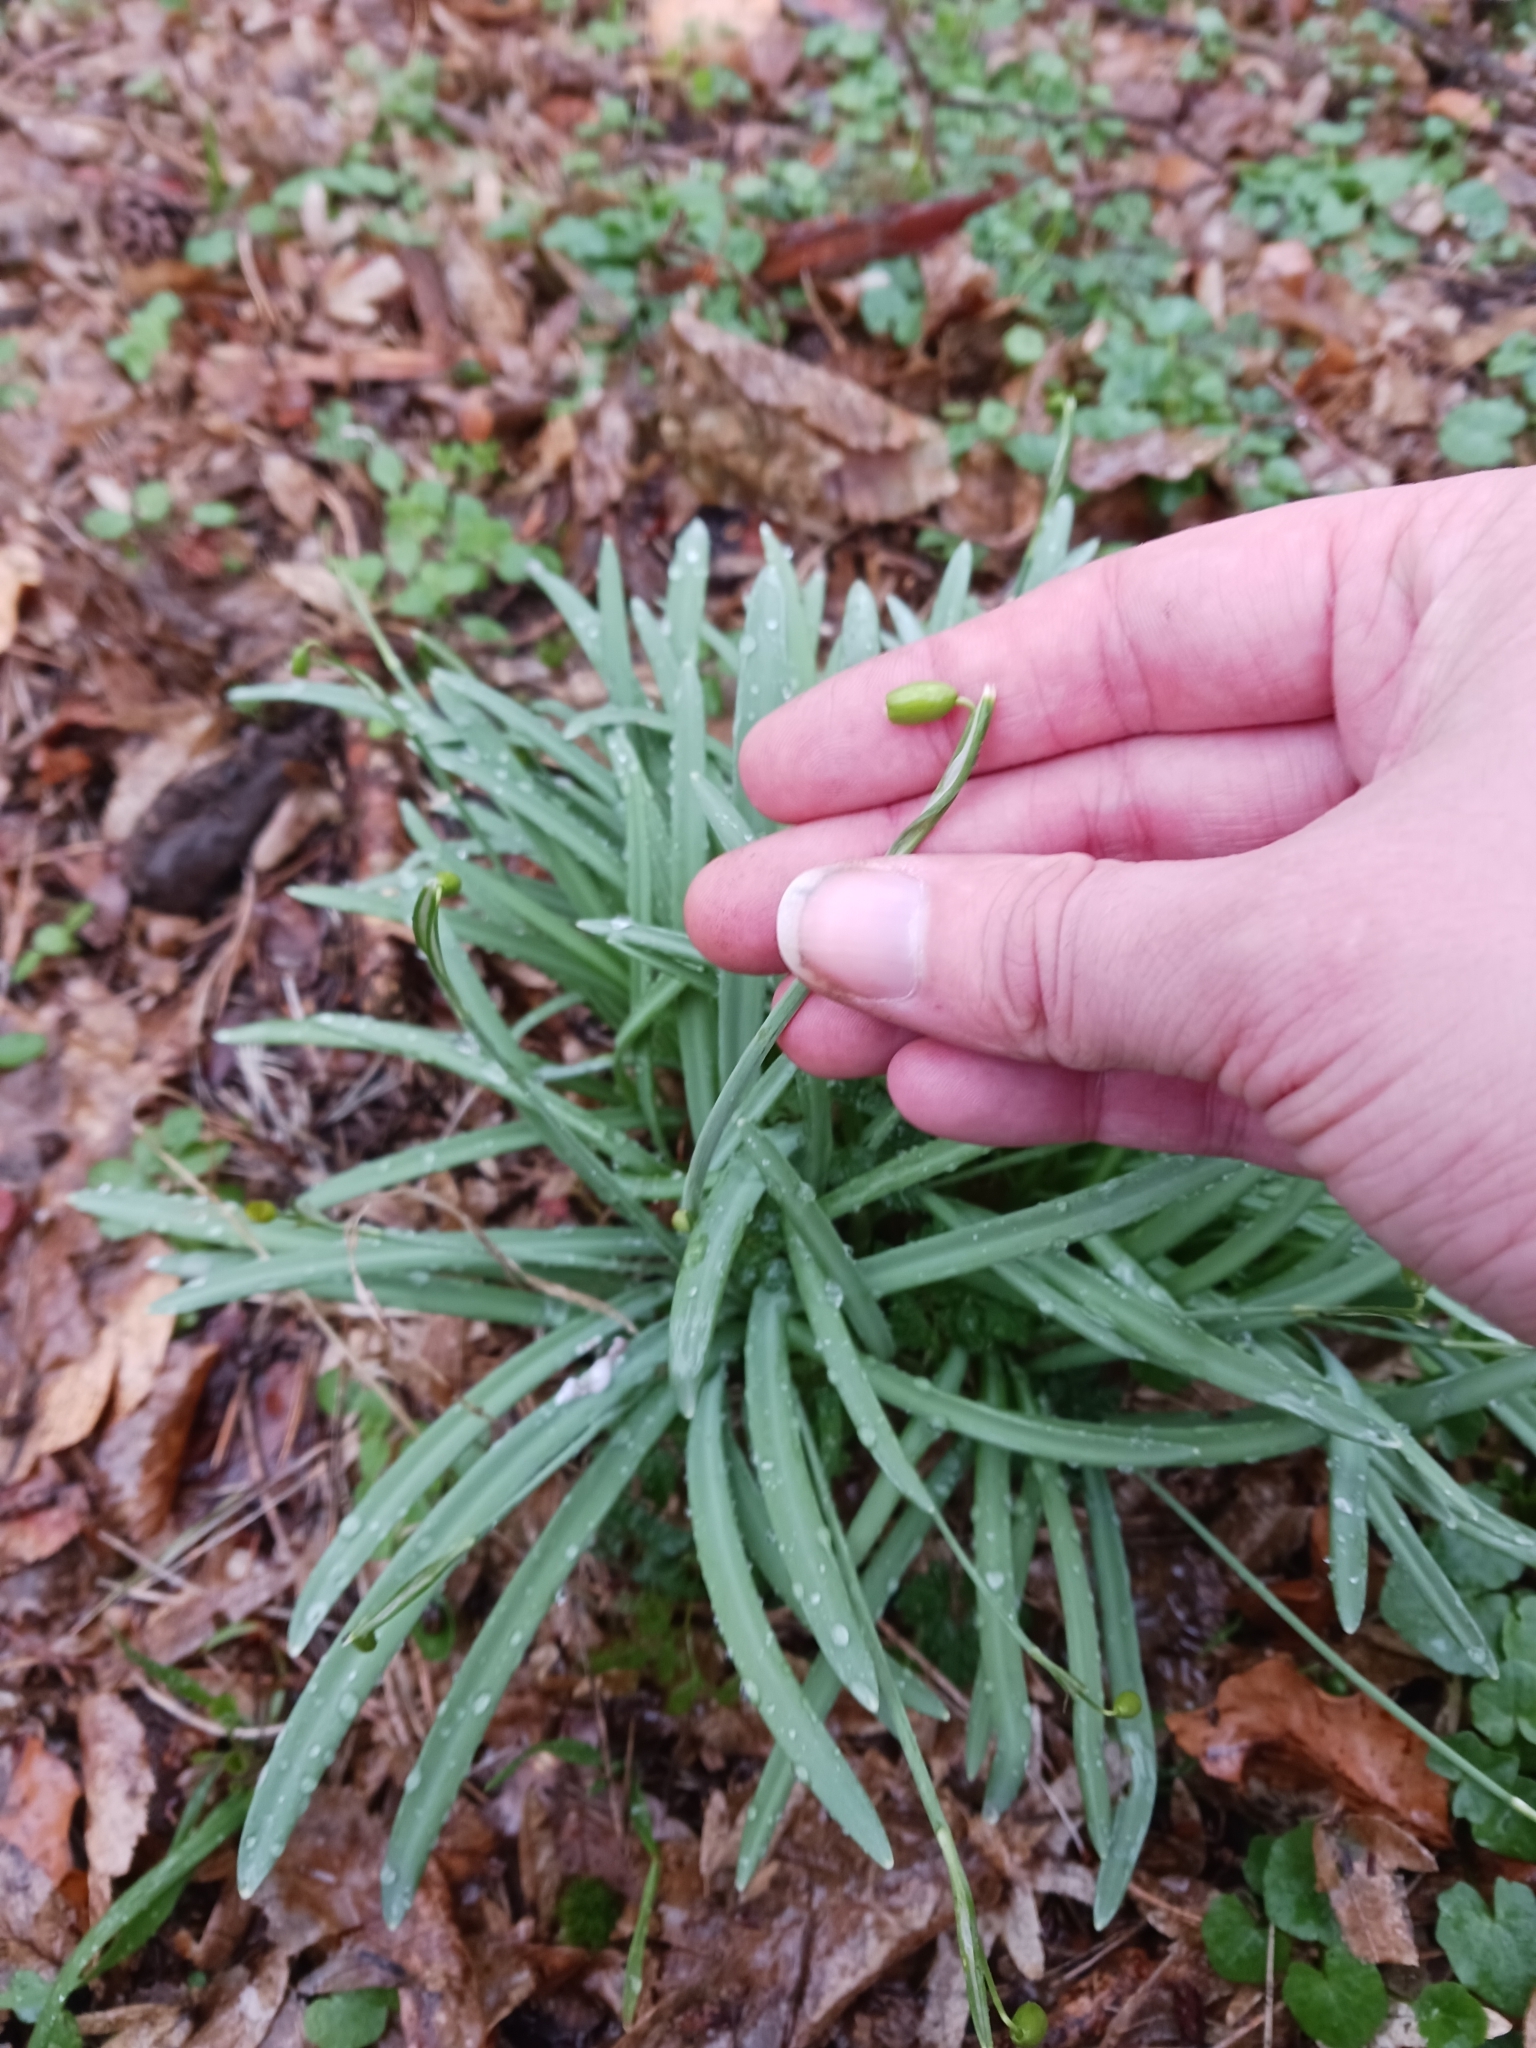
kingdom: Plantae
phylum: Tracheophyta
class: Liliopsida
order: Asparagales
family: Amaryllidaceae
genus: Galanthus
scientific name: Galanthus nivalis
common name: Snowdrop
